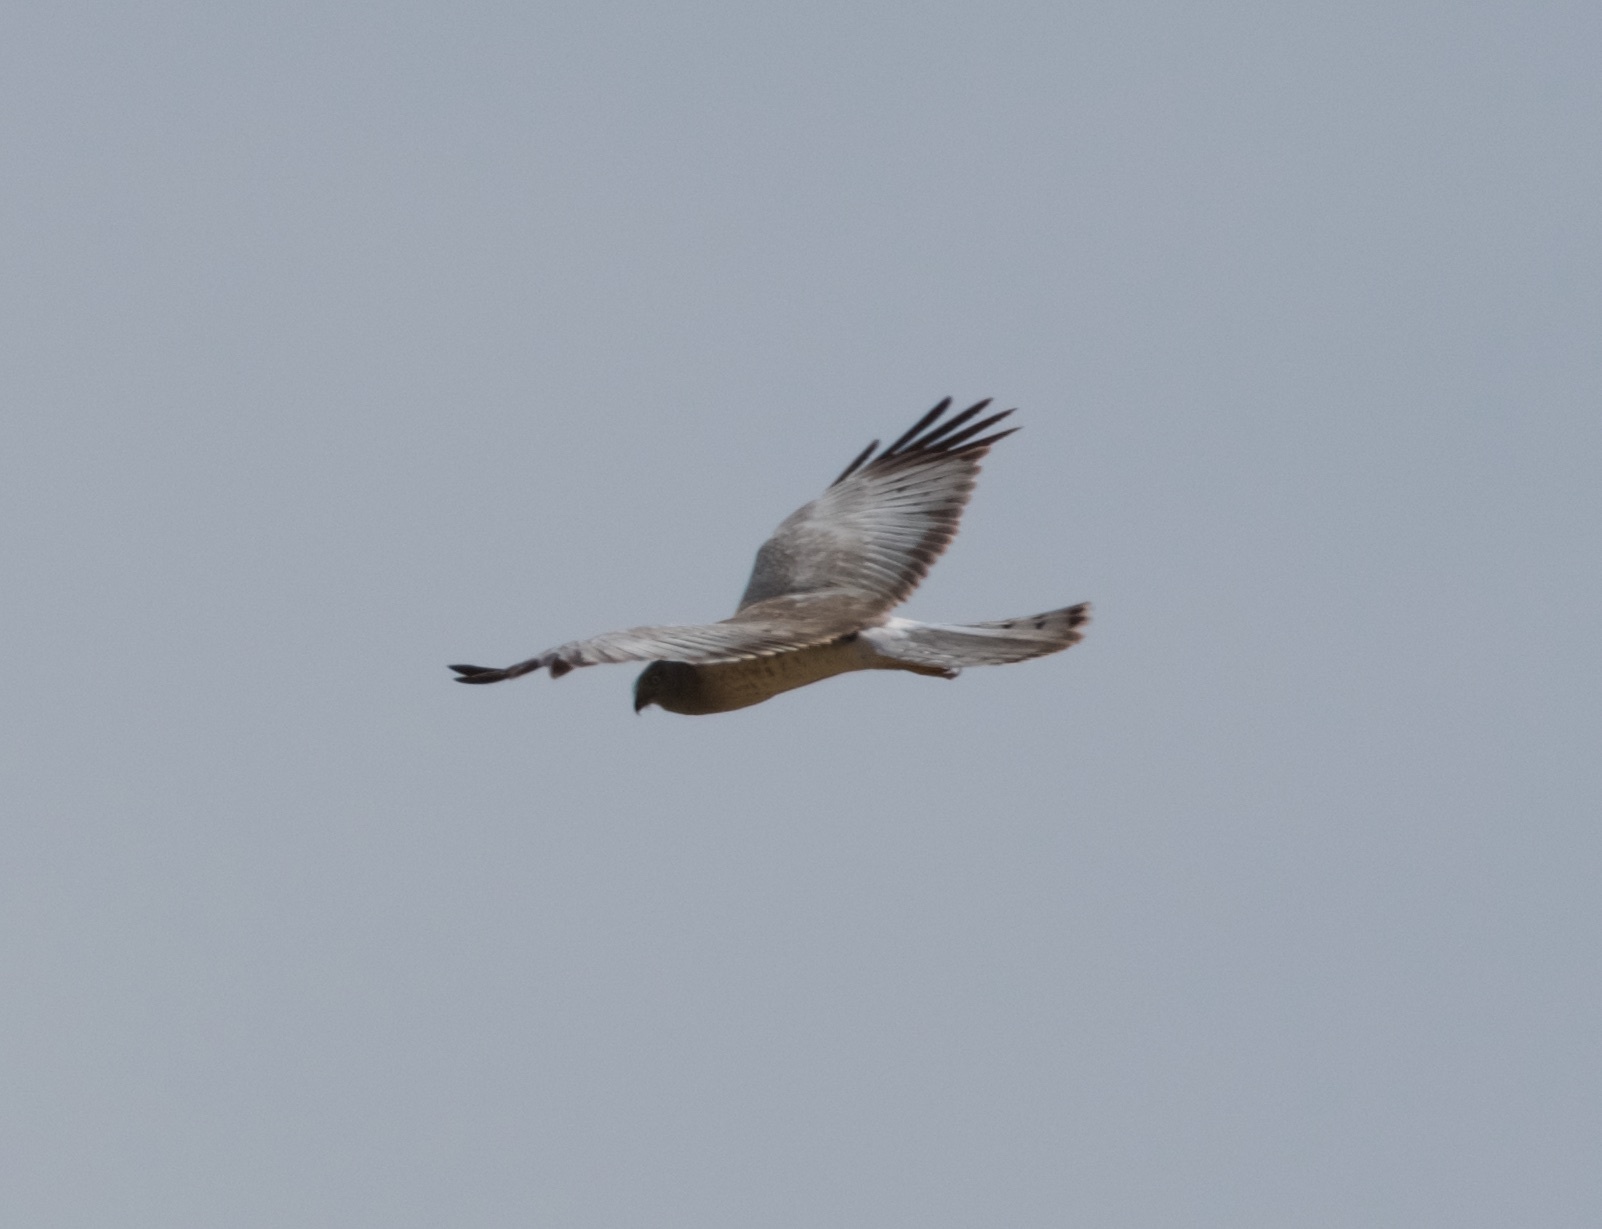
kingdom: Animalia
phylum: Chordata
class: Aves
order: Accipitriformes
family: Accipitridae
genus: Circus
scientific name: Circus cyaneus
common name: Hen harrier
